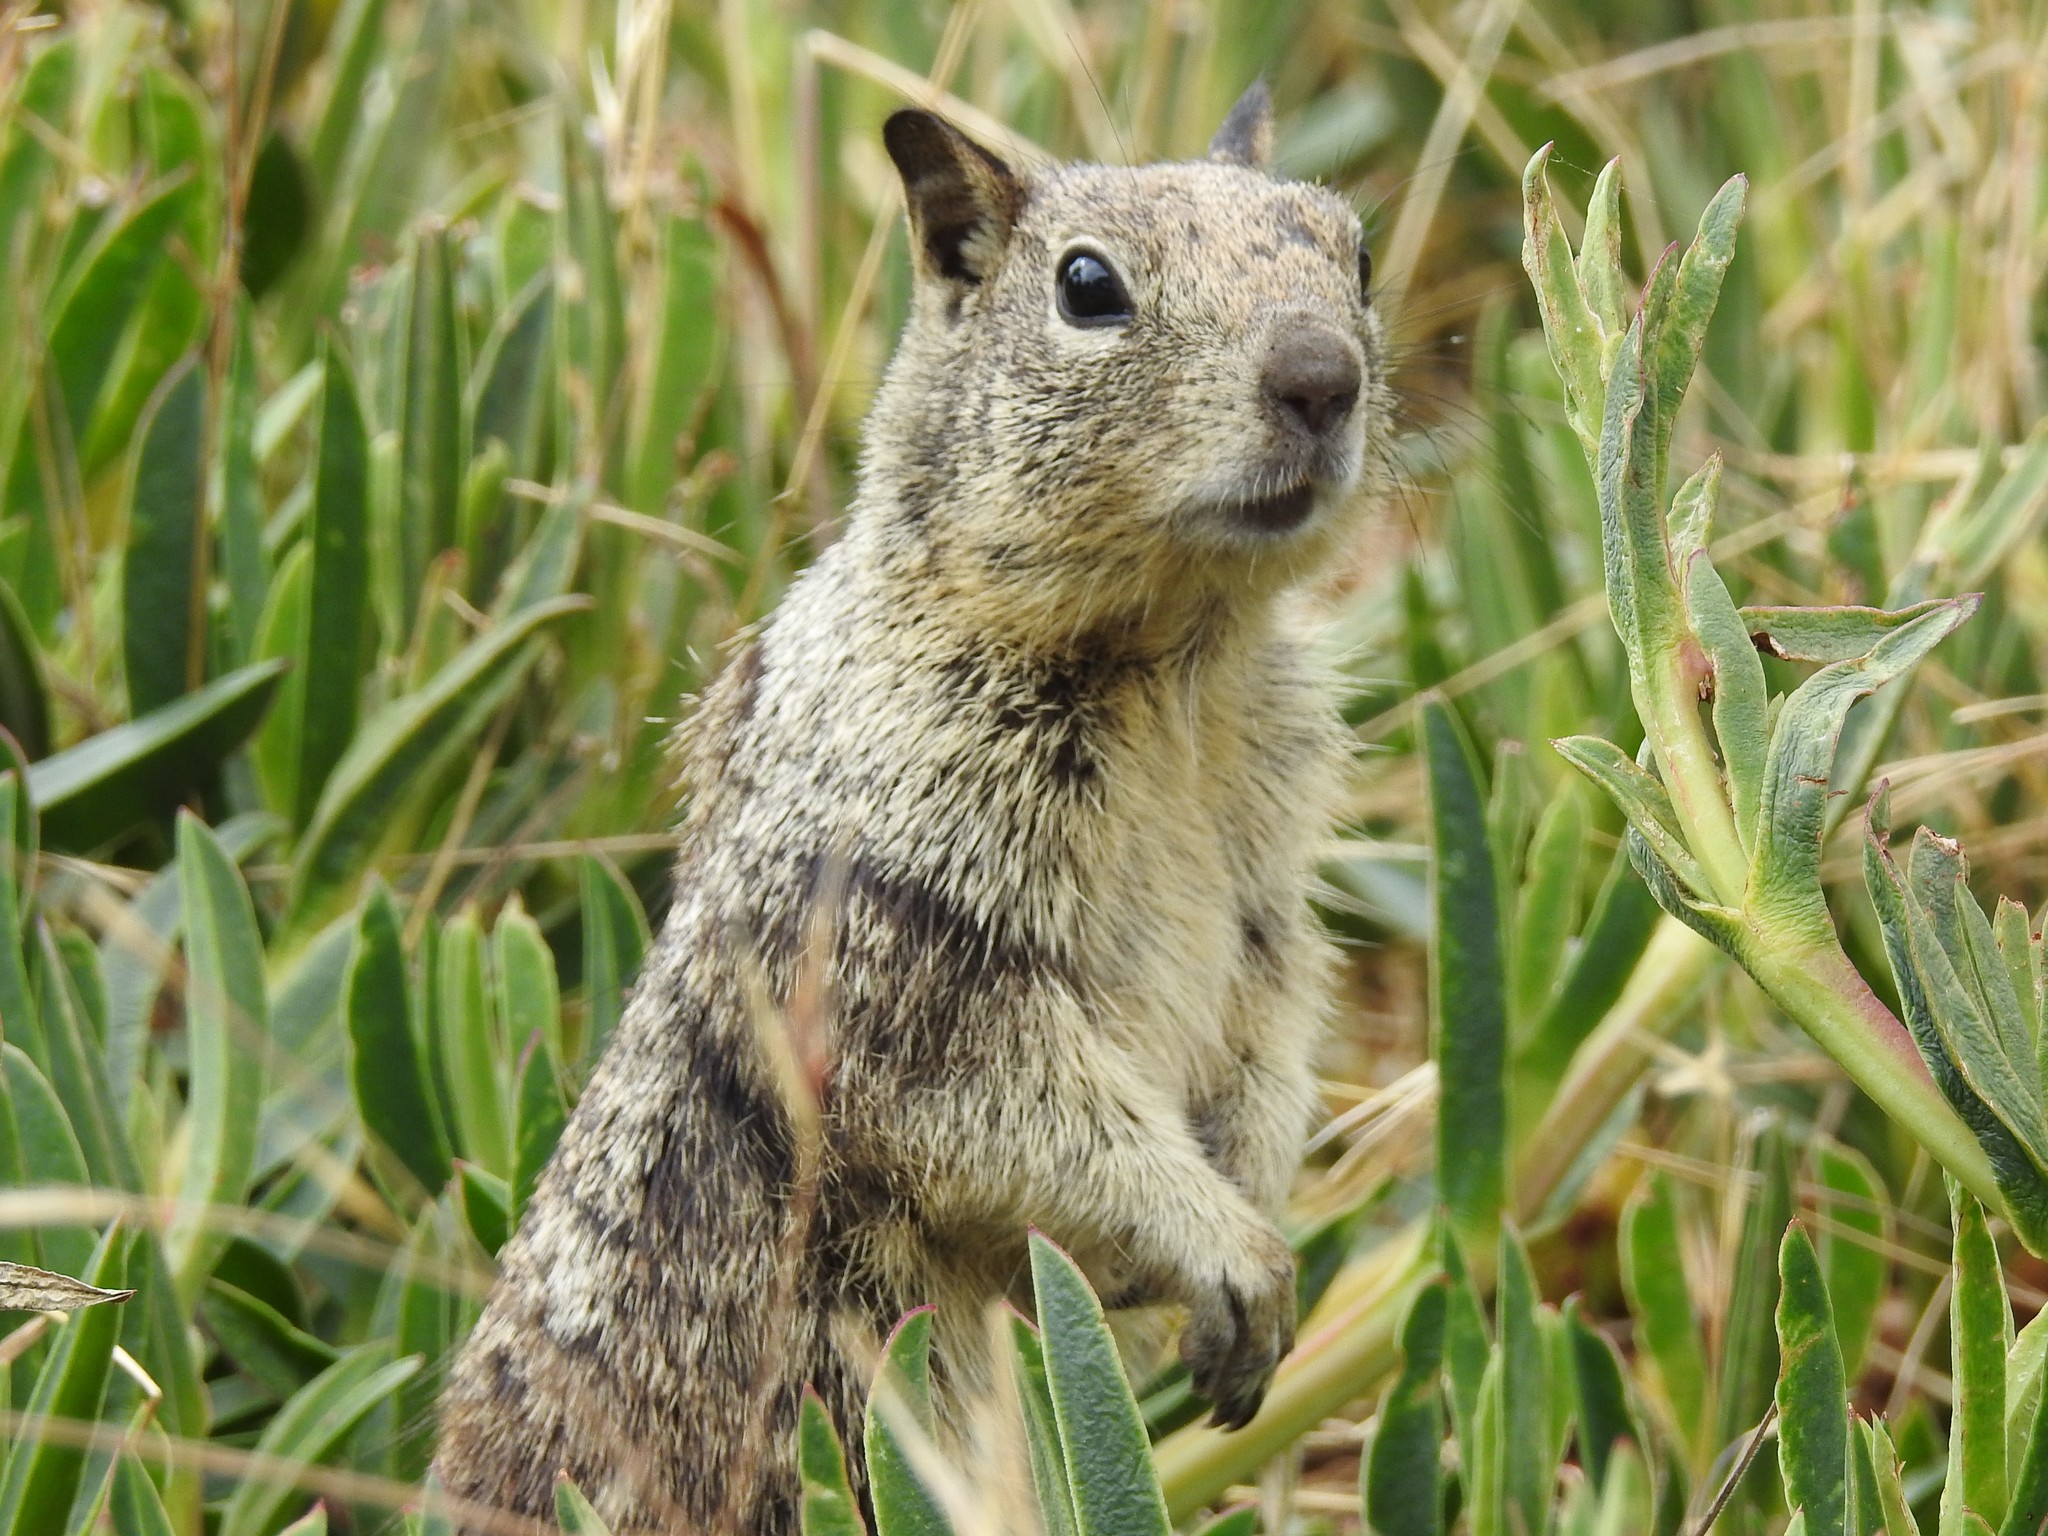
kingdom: Animalia
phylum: Chordata
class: Mammalia
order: Rodentia
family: Sciuridae
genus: Otospermophilus
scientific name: Otospermophilus beecheyi
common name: California ground squirrel
